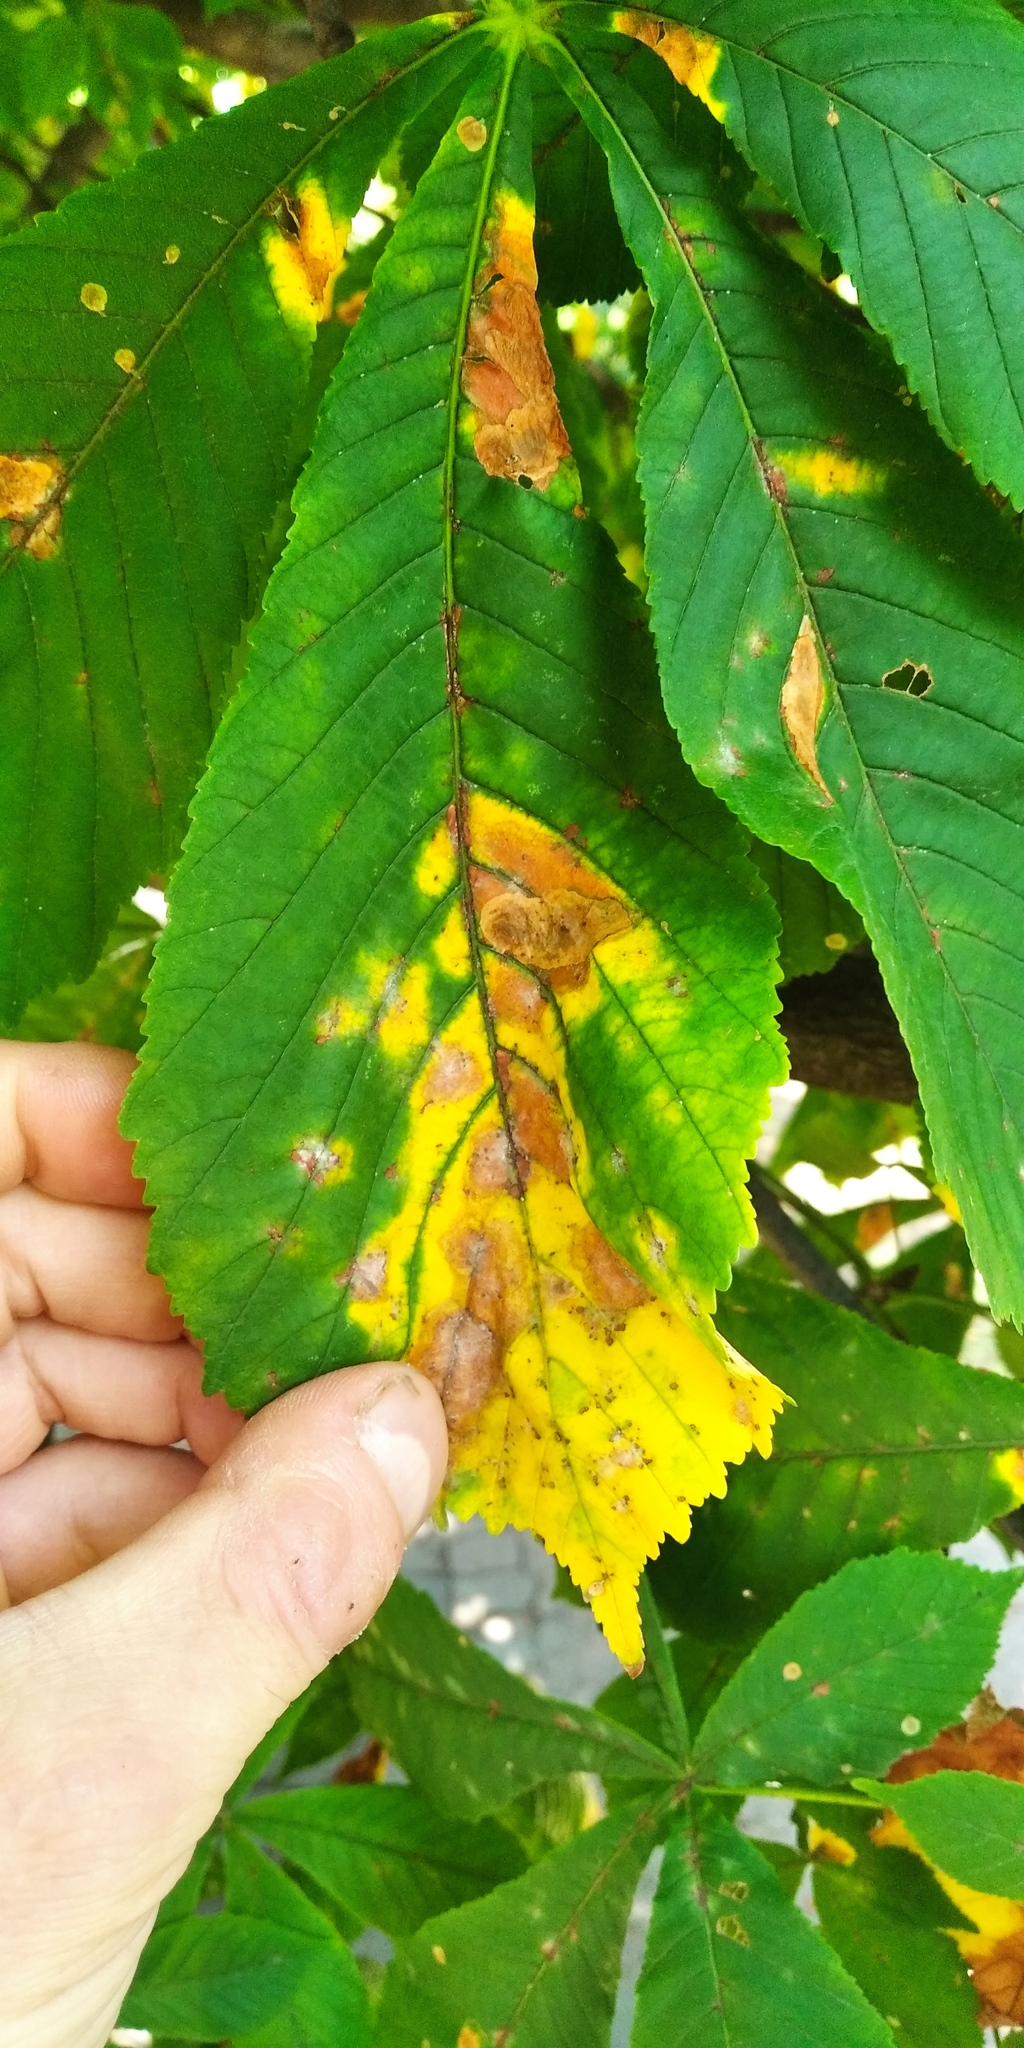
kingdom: Animalia
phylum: Arthropoda
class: Insecta
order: Lepidoptera
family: Gracillariidae
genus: Cameraria
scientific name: Cameraria ohridella
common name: Horse-chestnut leaf-miner
